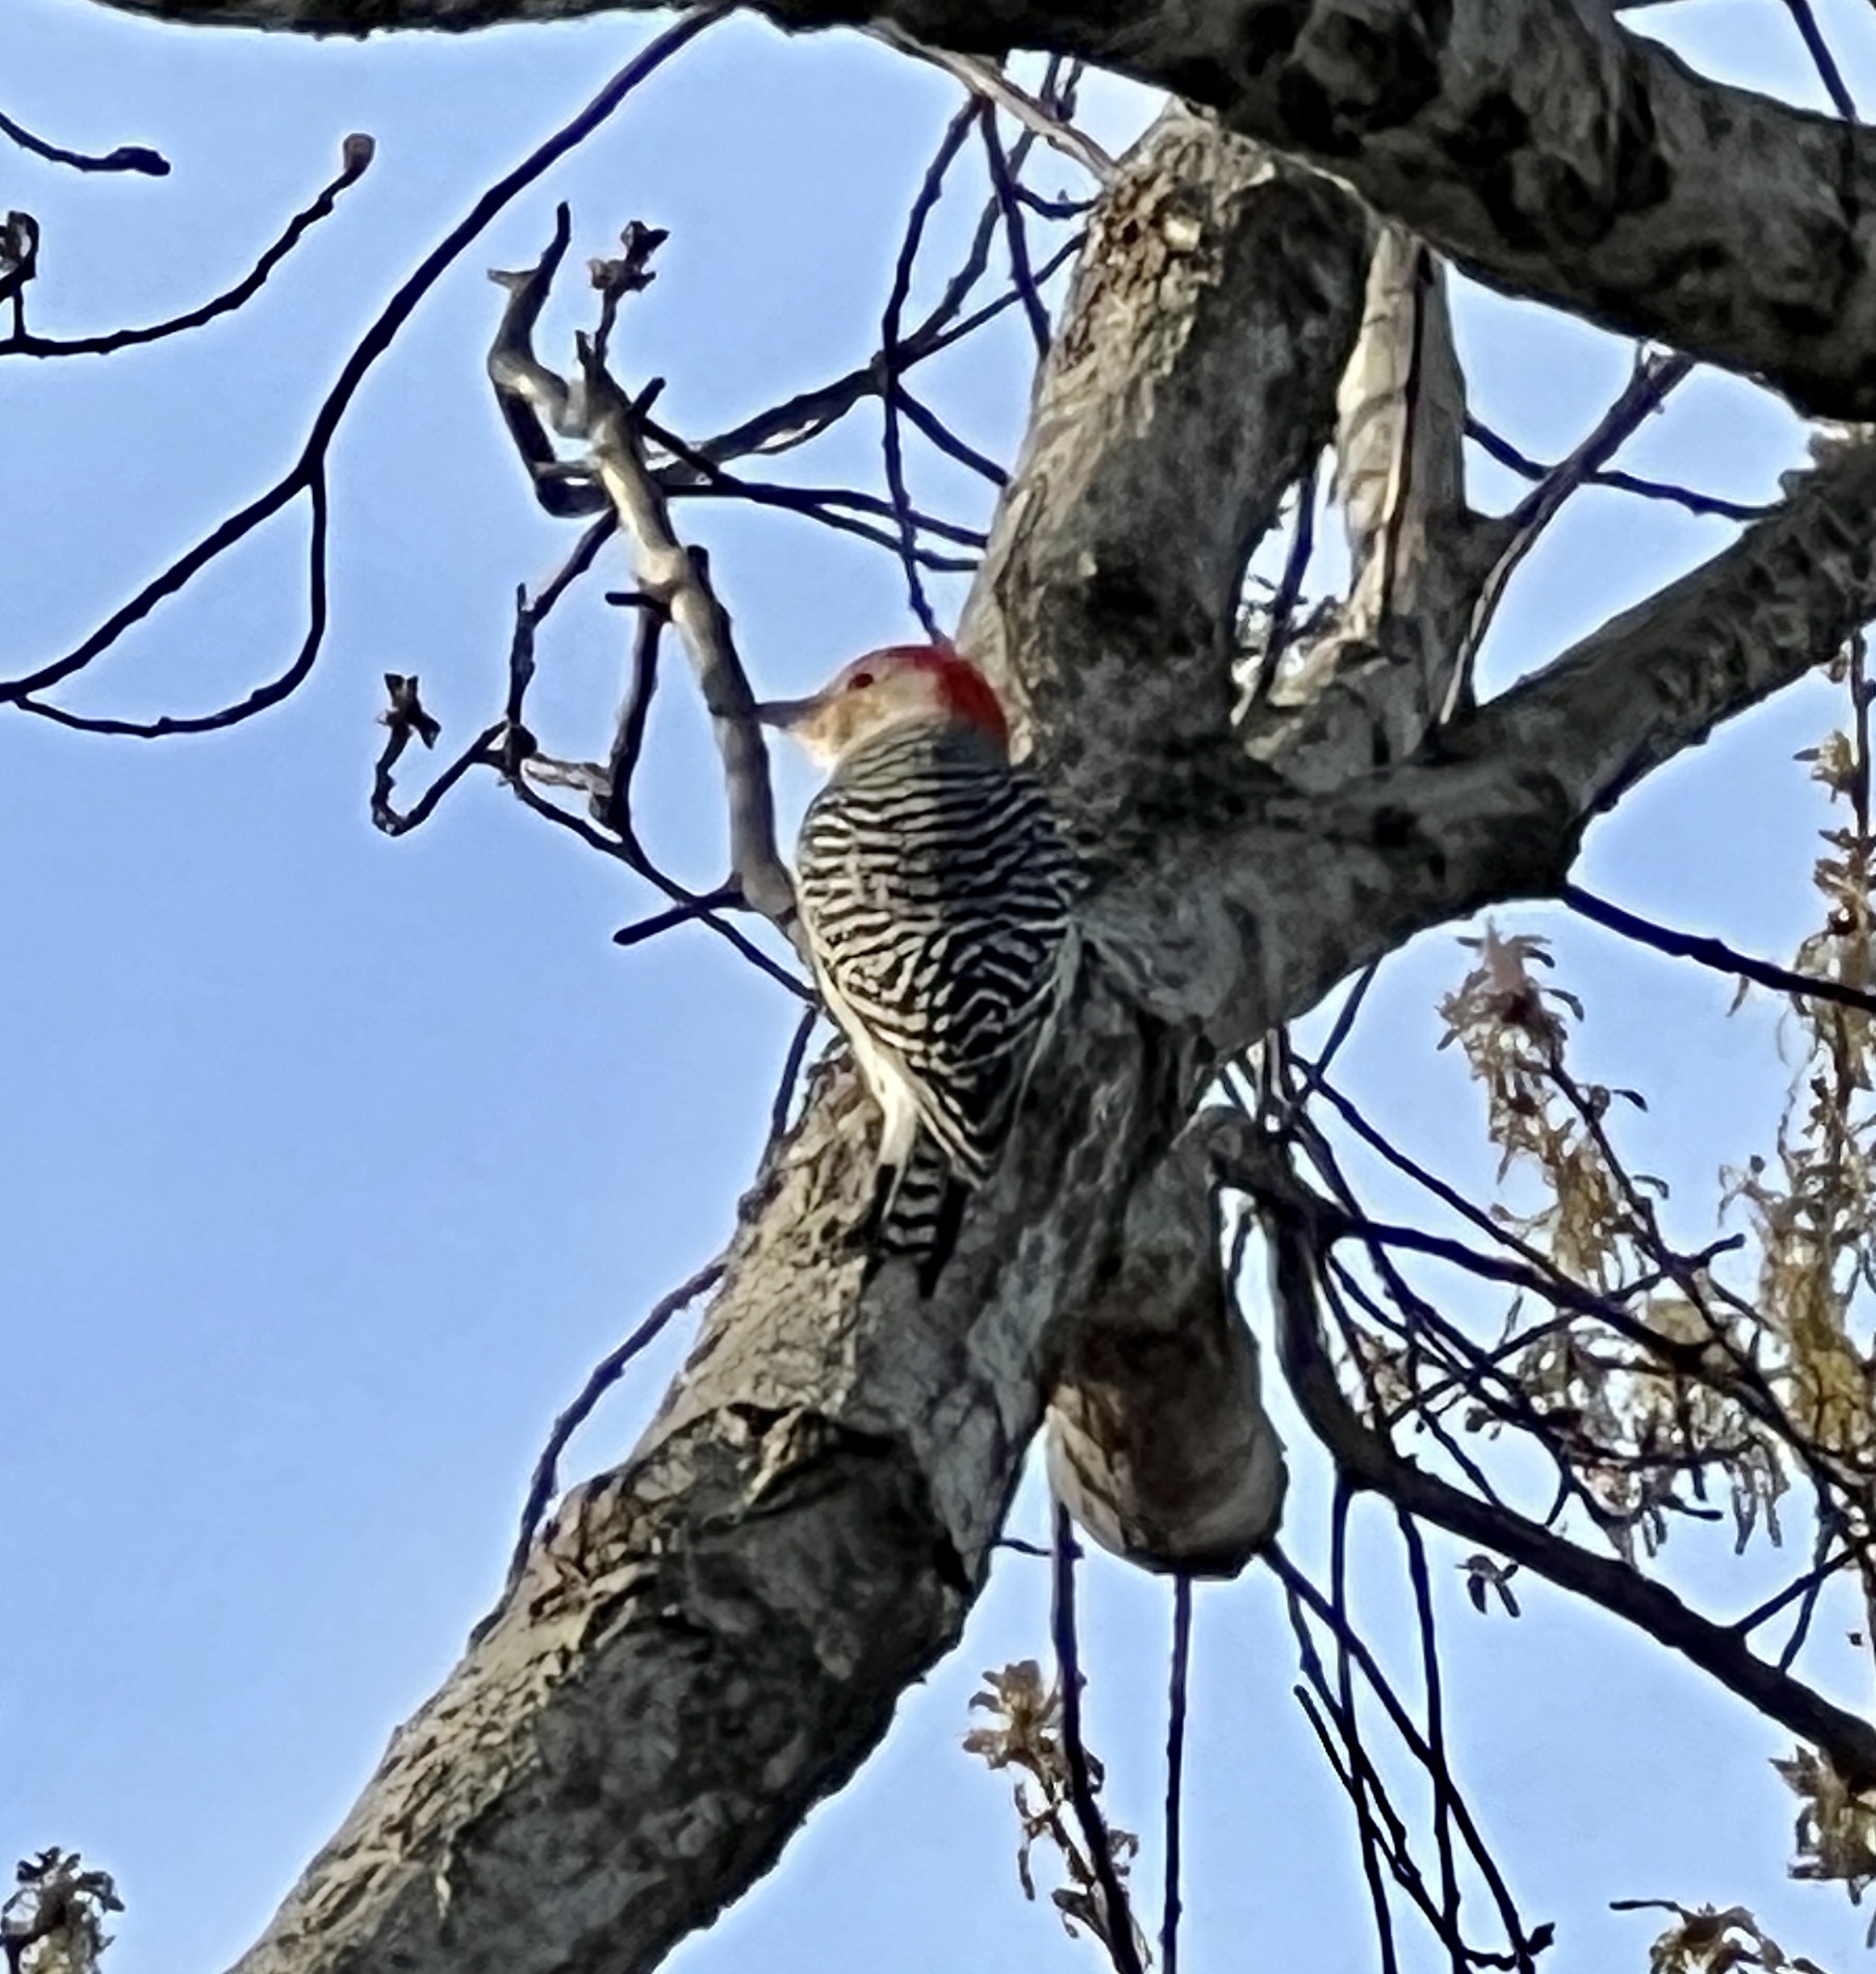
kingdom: Animalia
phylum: Chordata
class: Aves
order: Piciformes
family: Picidae
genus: Melanerpes
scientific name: Melanerpes carolinus
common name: Red-bellied woodpecker
